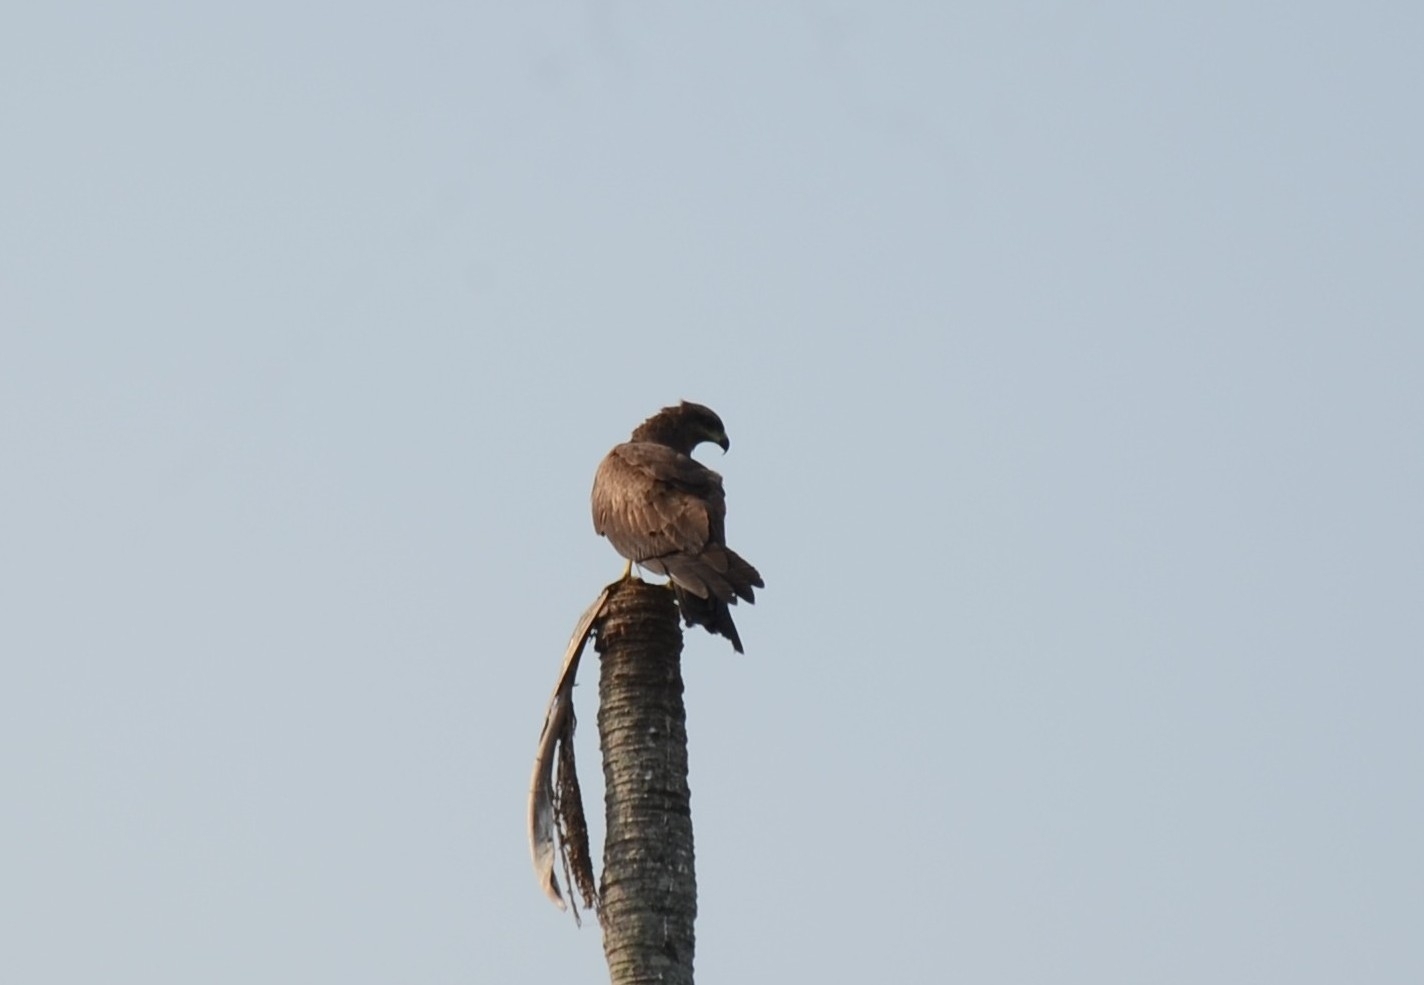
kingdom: Animalia
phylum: Chordata
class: Aves
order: Accipitriformes
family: Accipitridae
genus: Milvus
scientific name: Milvus migrans
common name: Black kite
